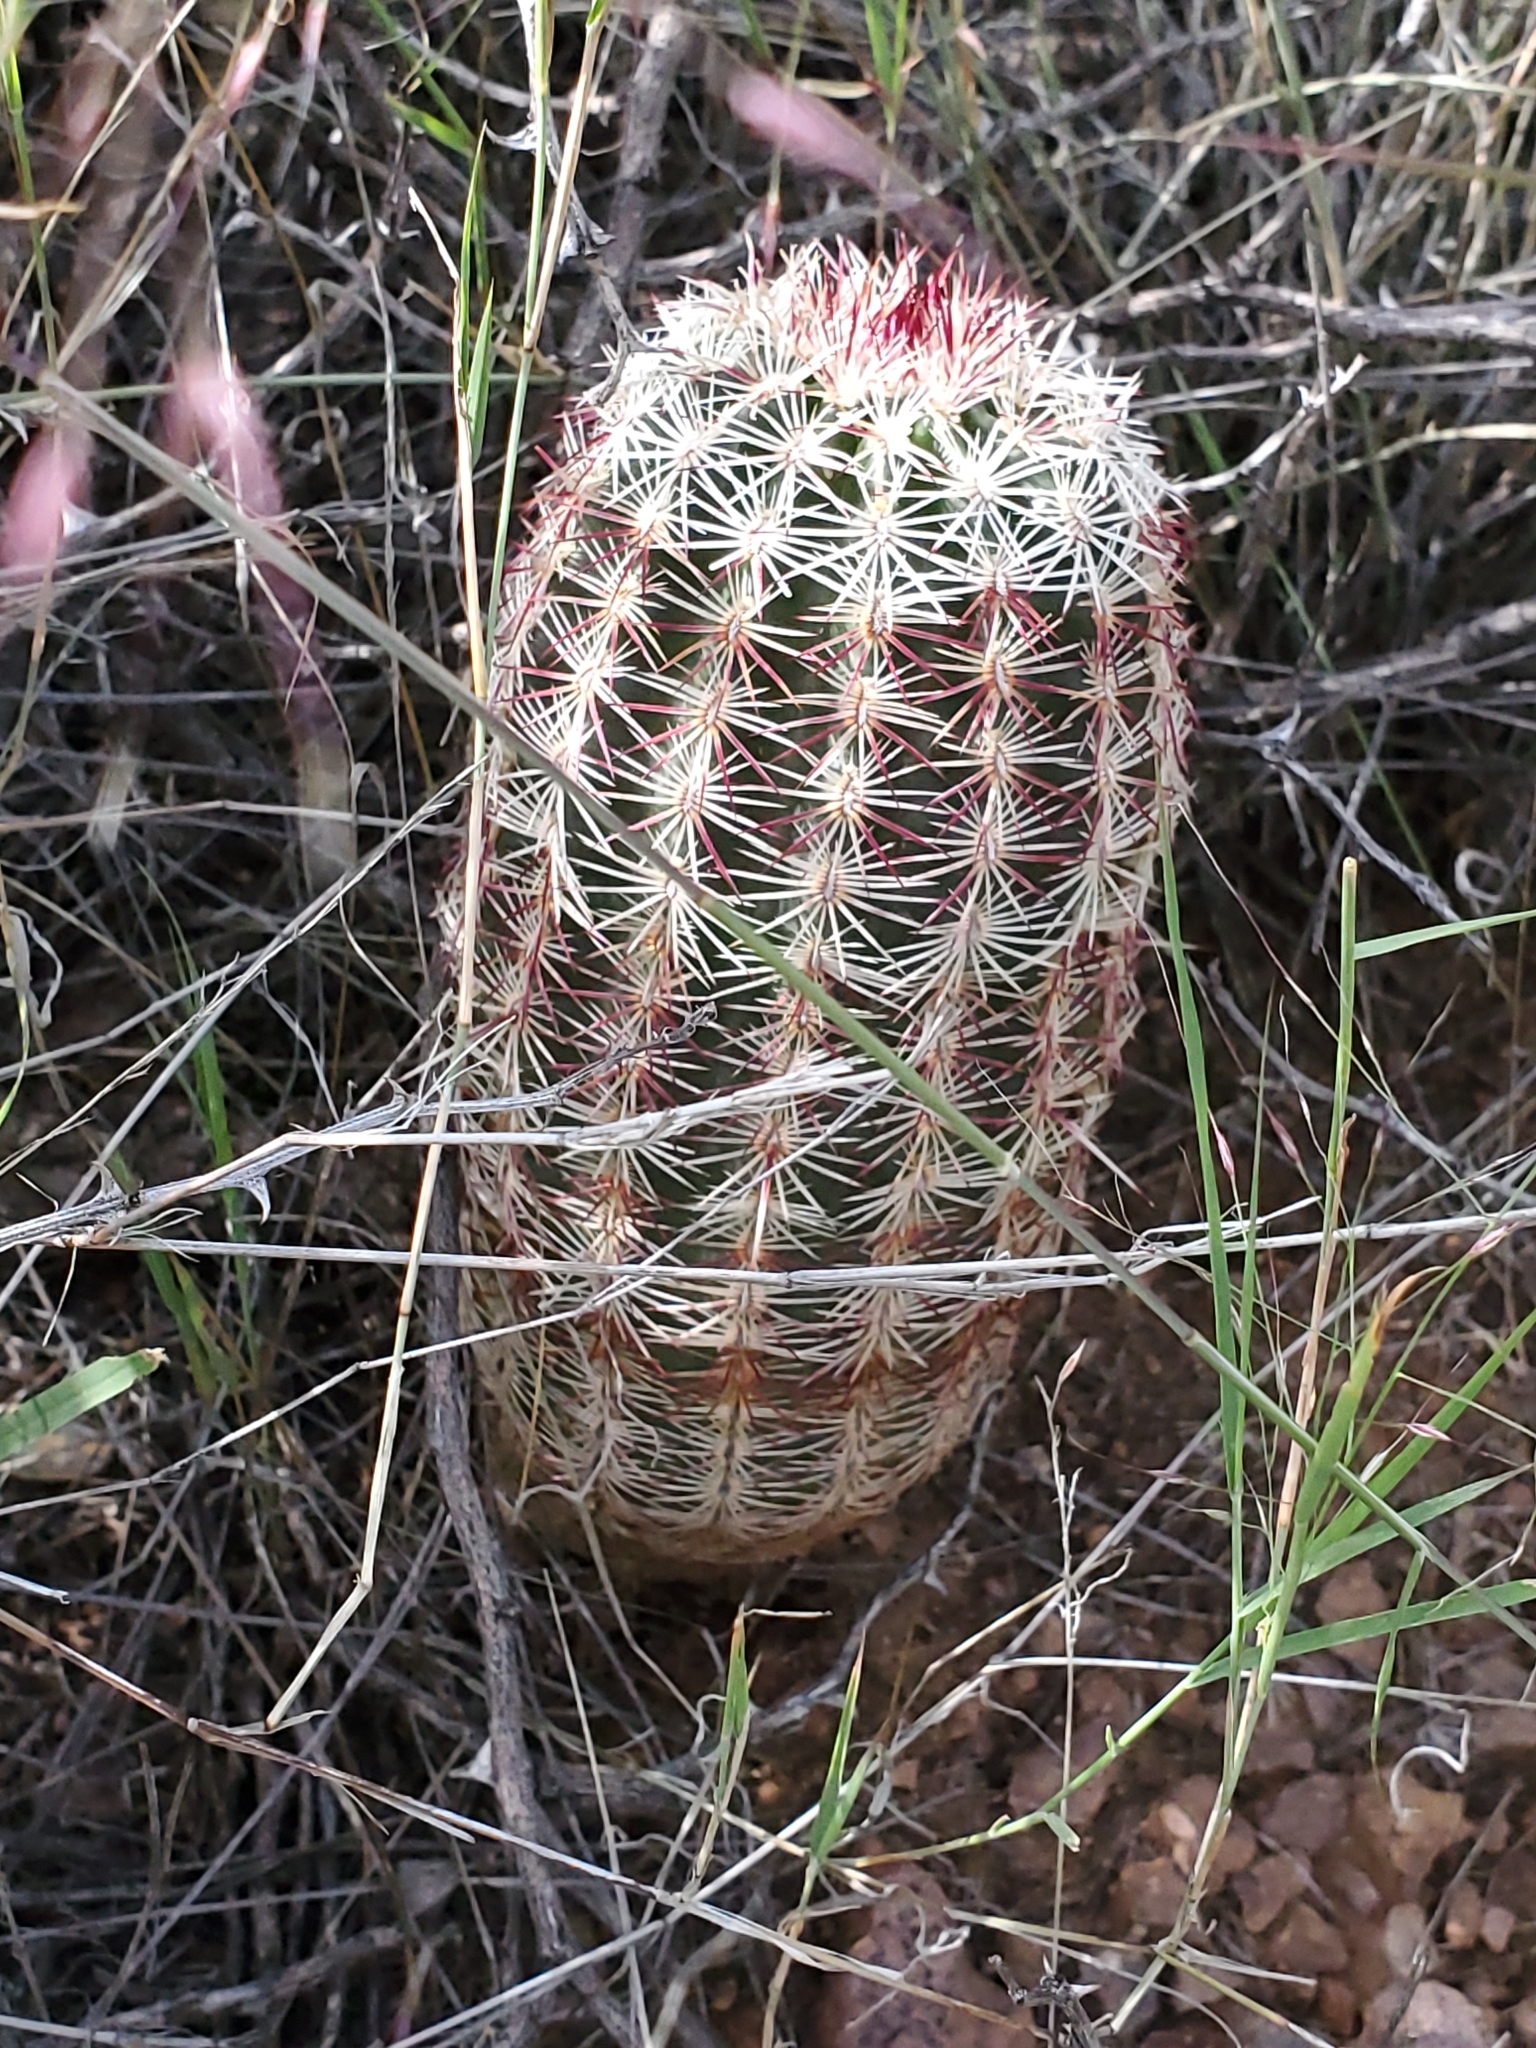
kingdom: Plantae
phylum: Tracheophyta
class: Magnoliopsida
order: Caryophyllales
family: Cactaceae
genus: Echinocereus
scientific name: Echinocereus viridiflorus
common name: Nylon hedgehog cactus
